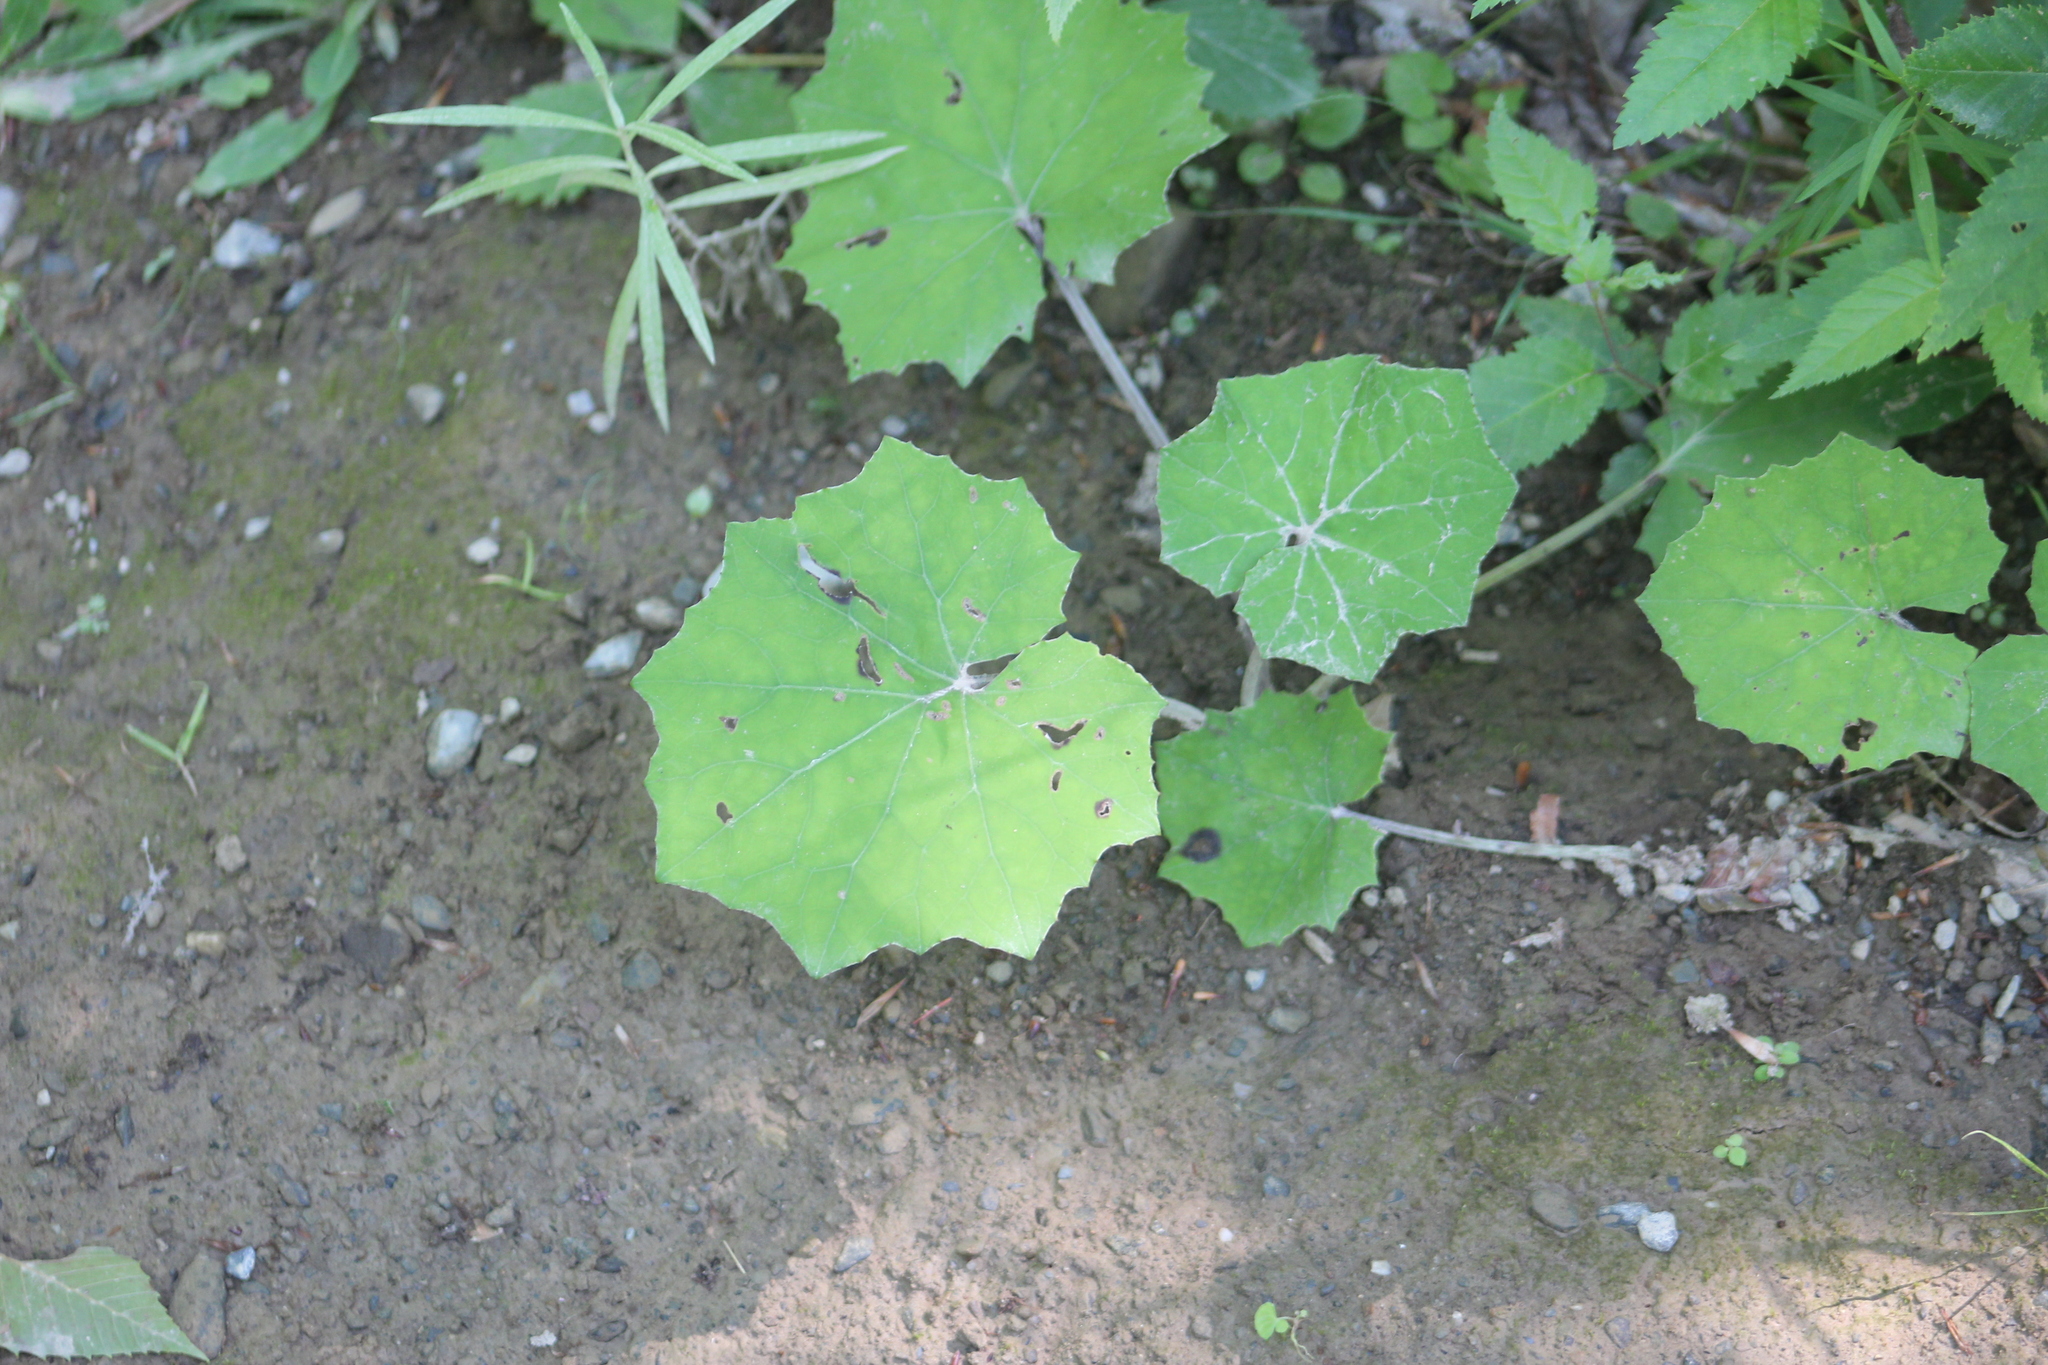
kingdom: Plantae
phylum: Tracheophyta
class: Magnoliopsida
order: Asterales
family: Asteraceae
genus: Tussilago
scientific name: Tussilago farfara
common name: Coltsfoot
